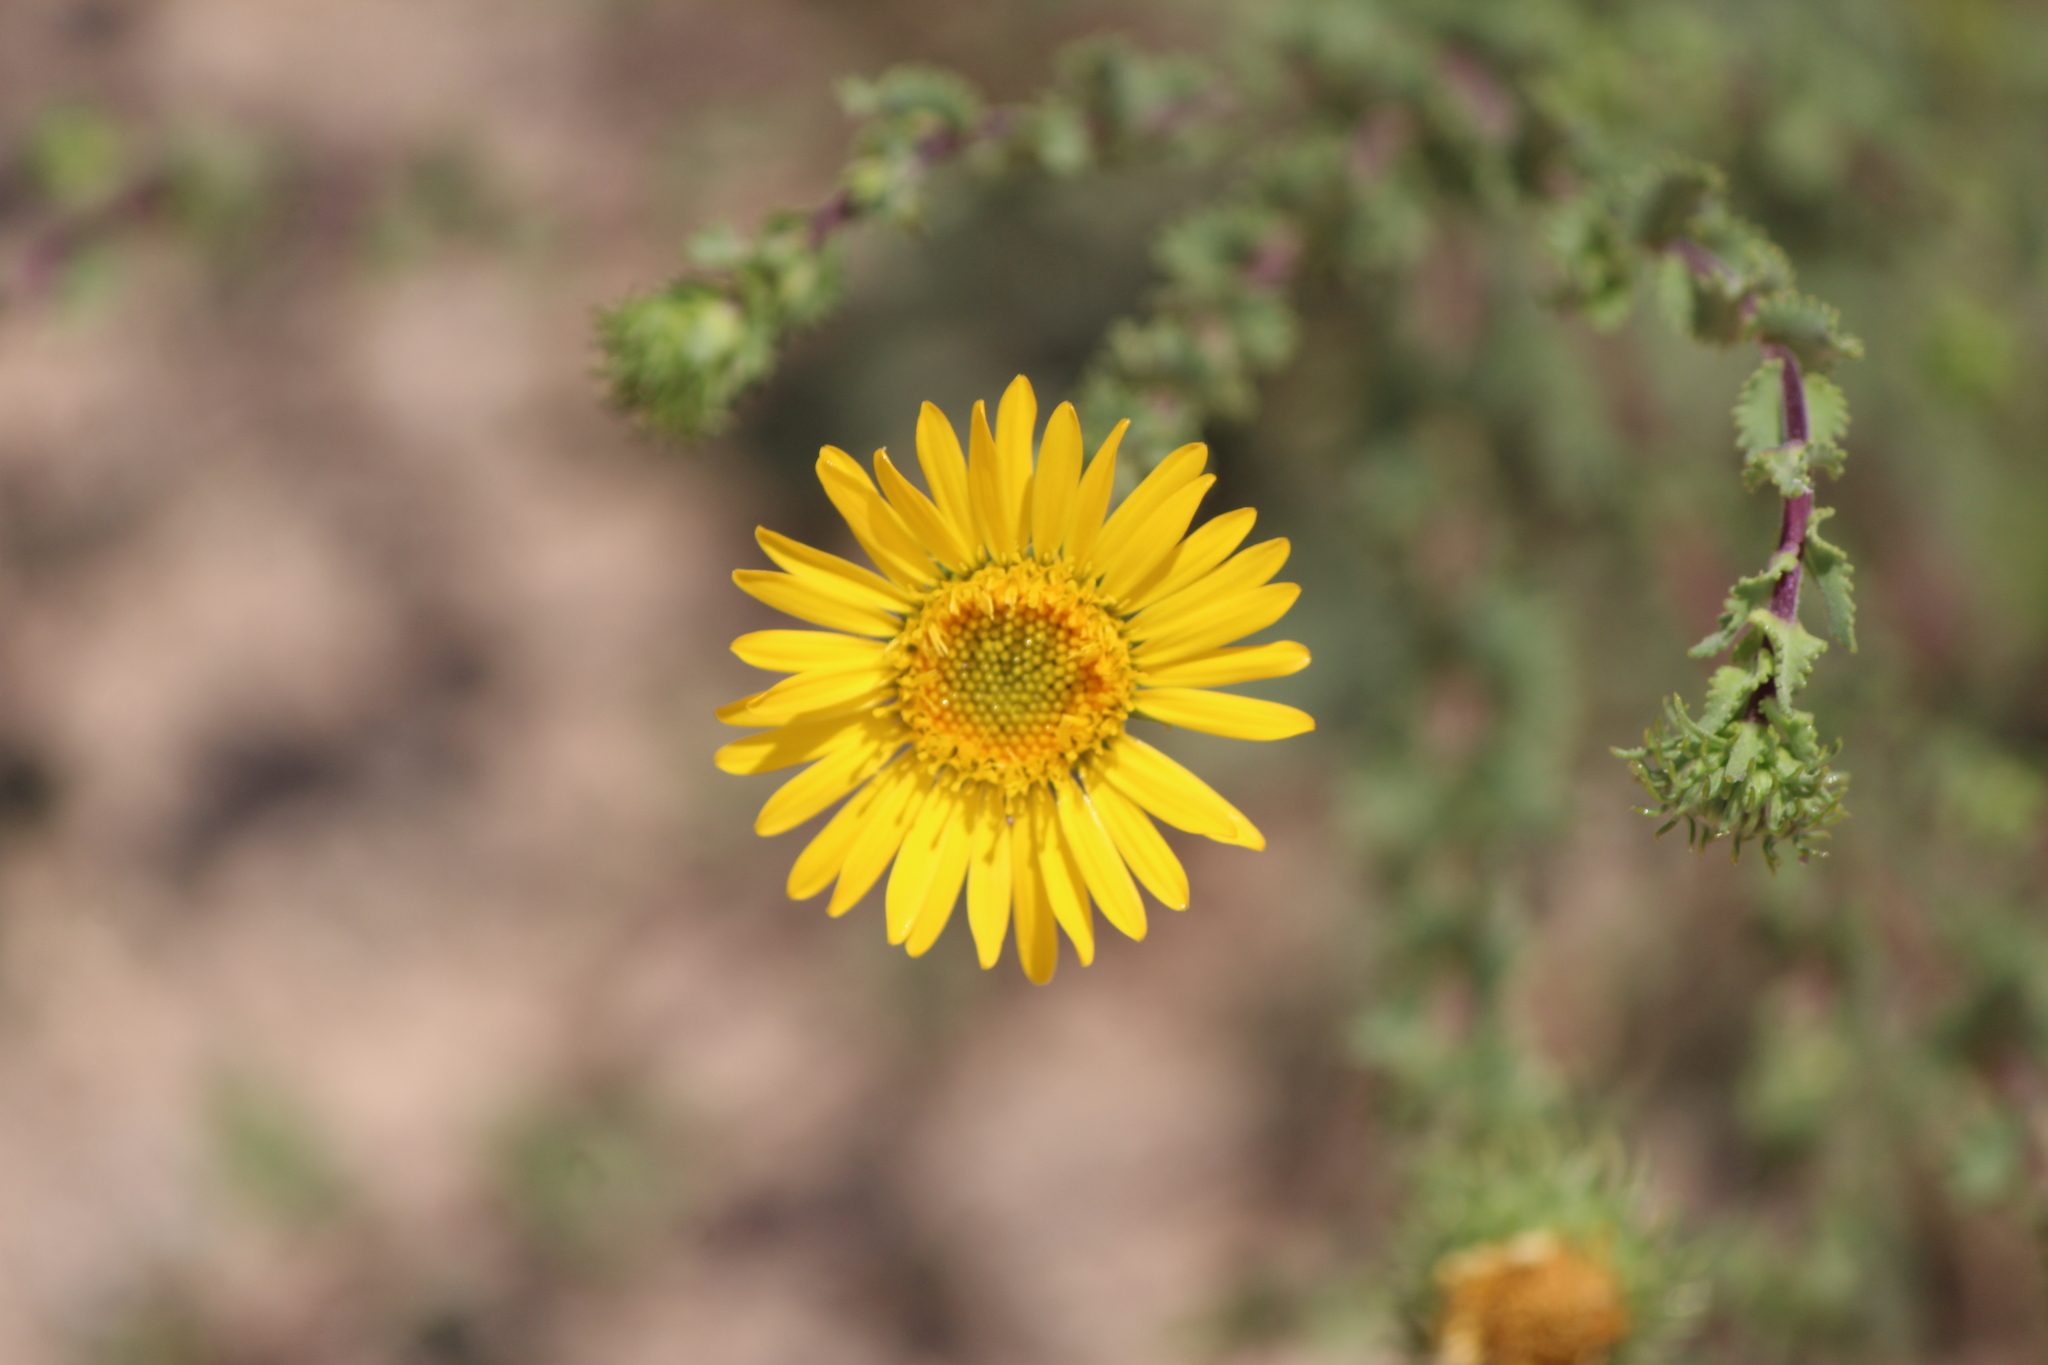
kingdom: Plantae
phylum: Tracheophyta
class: Magnoliopsida
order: Asterales
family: Asteraceae
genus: Grindelia
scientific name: Grindelia subdecurrens
